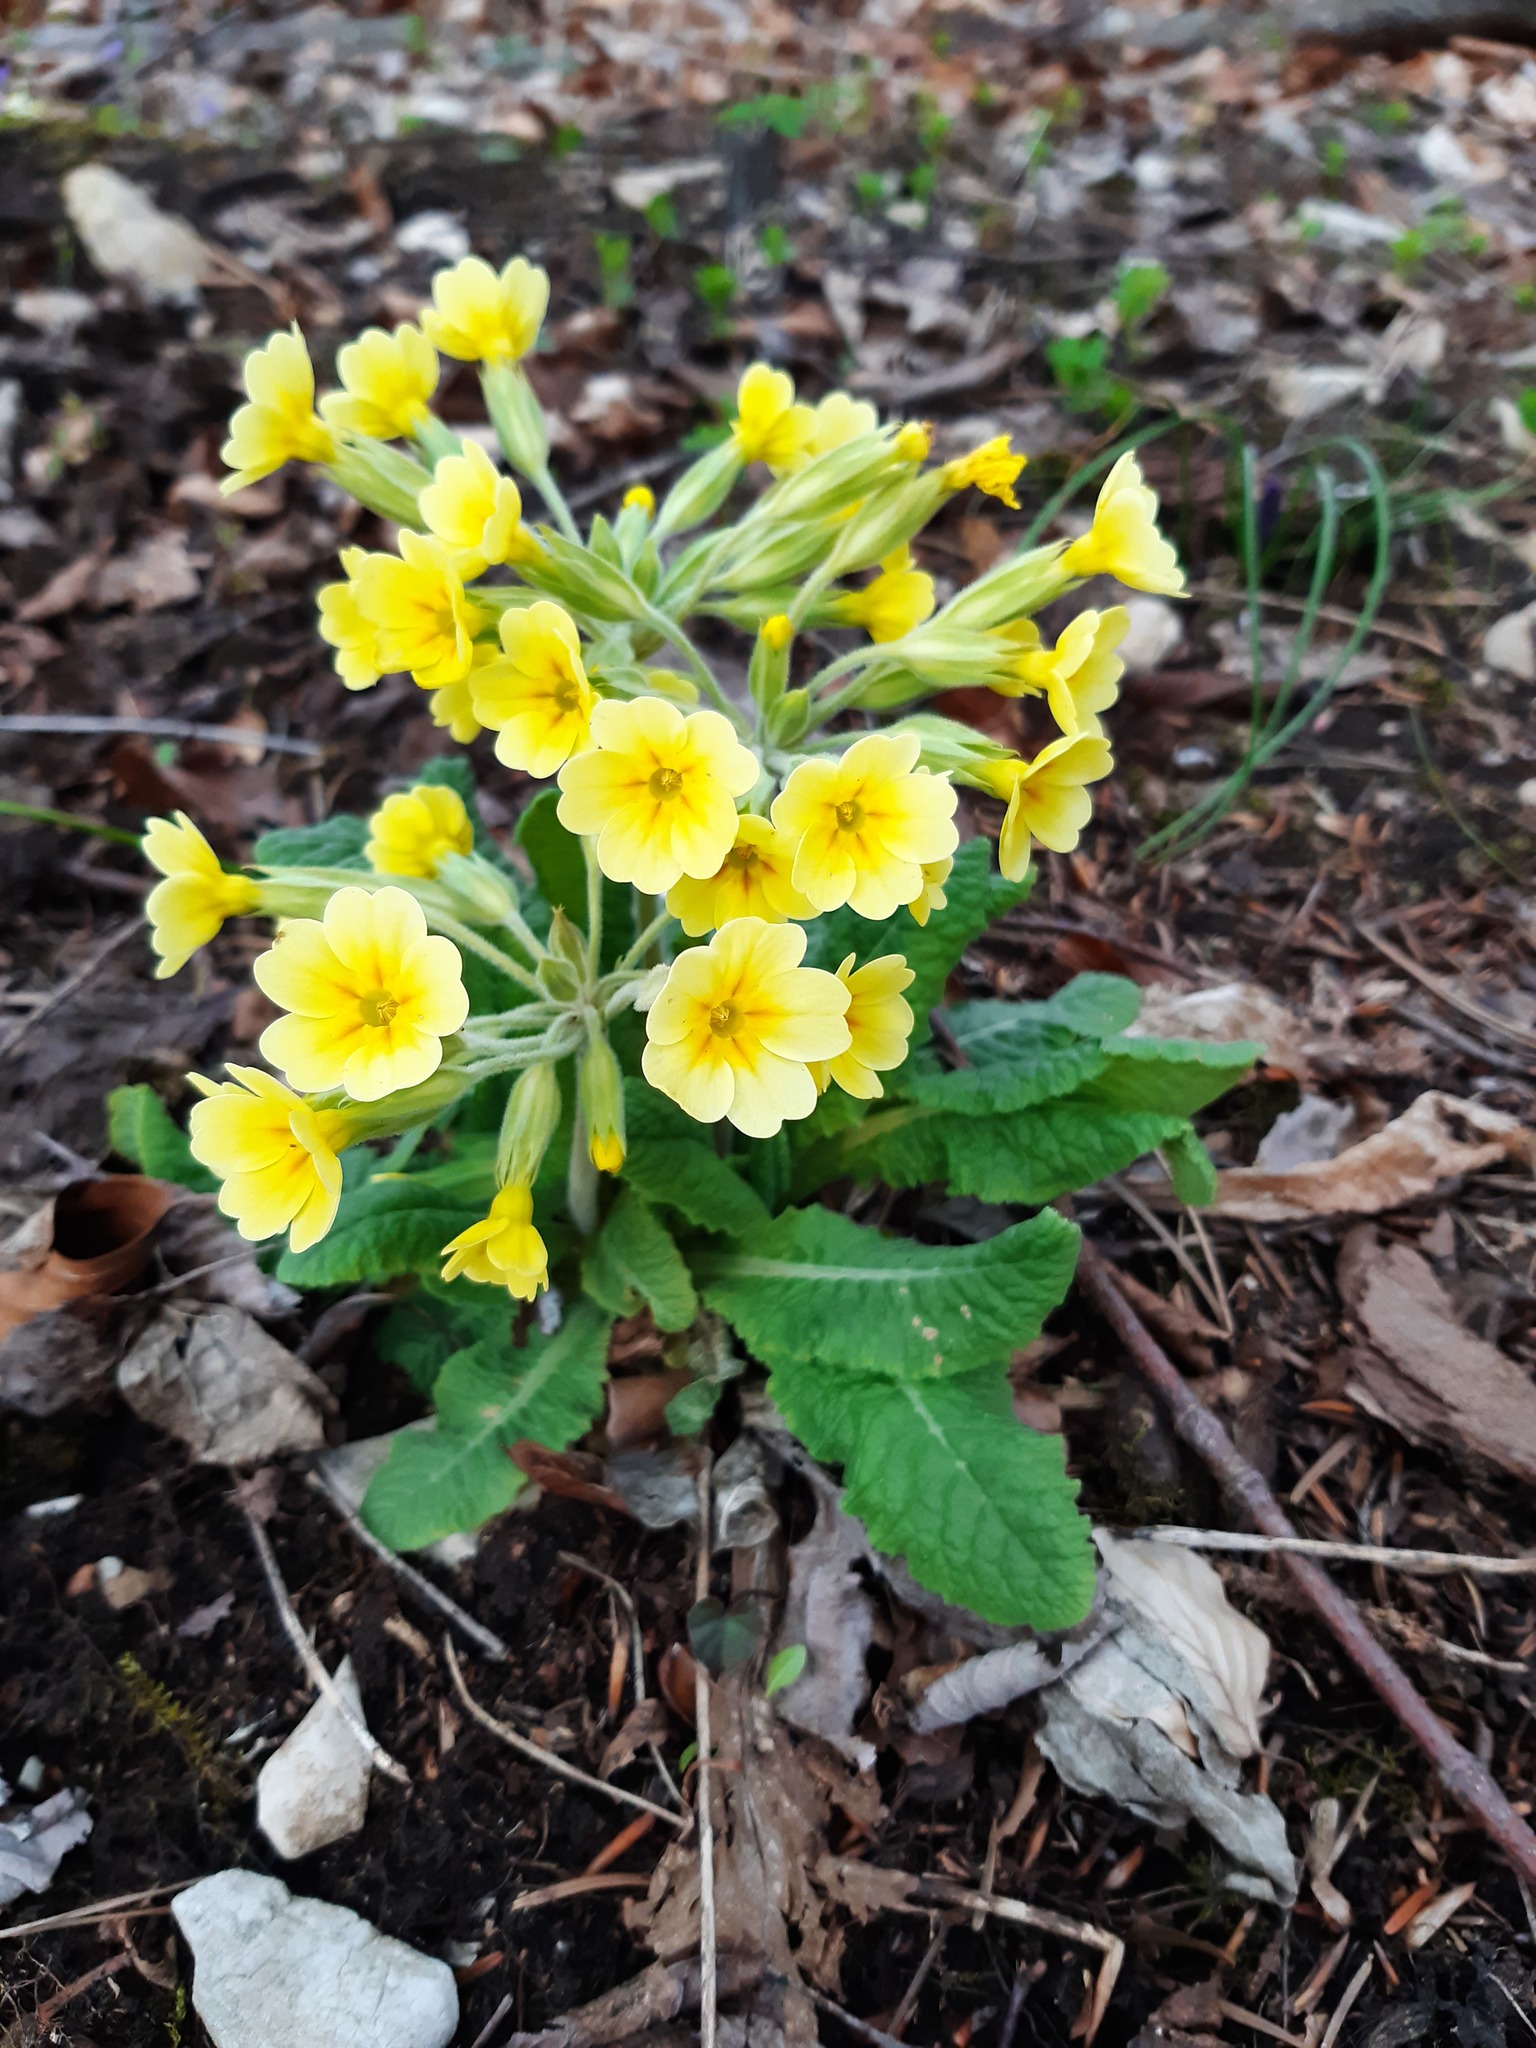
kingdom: Plantae
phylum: Tracheophyta
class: Magnoliopsida
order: Ericales
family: Primulaceae
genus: Primula
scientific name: Primula polyantha
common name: False oxlip
